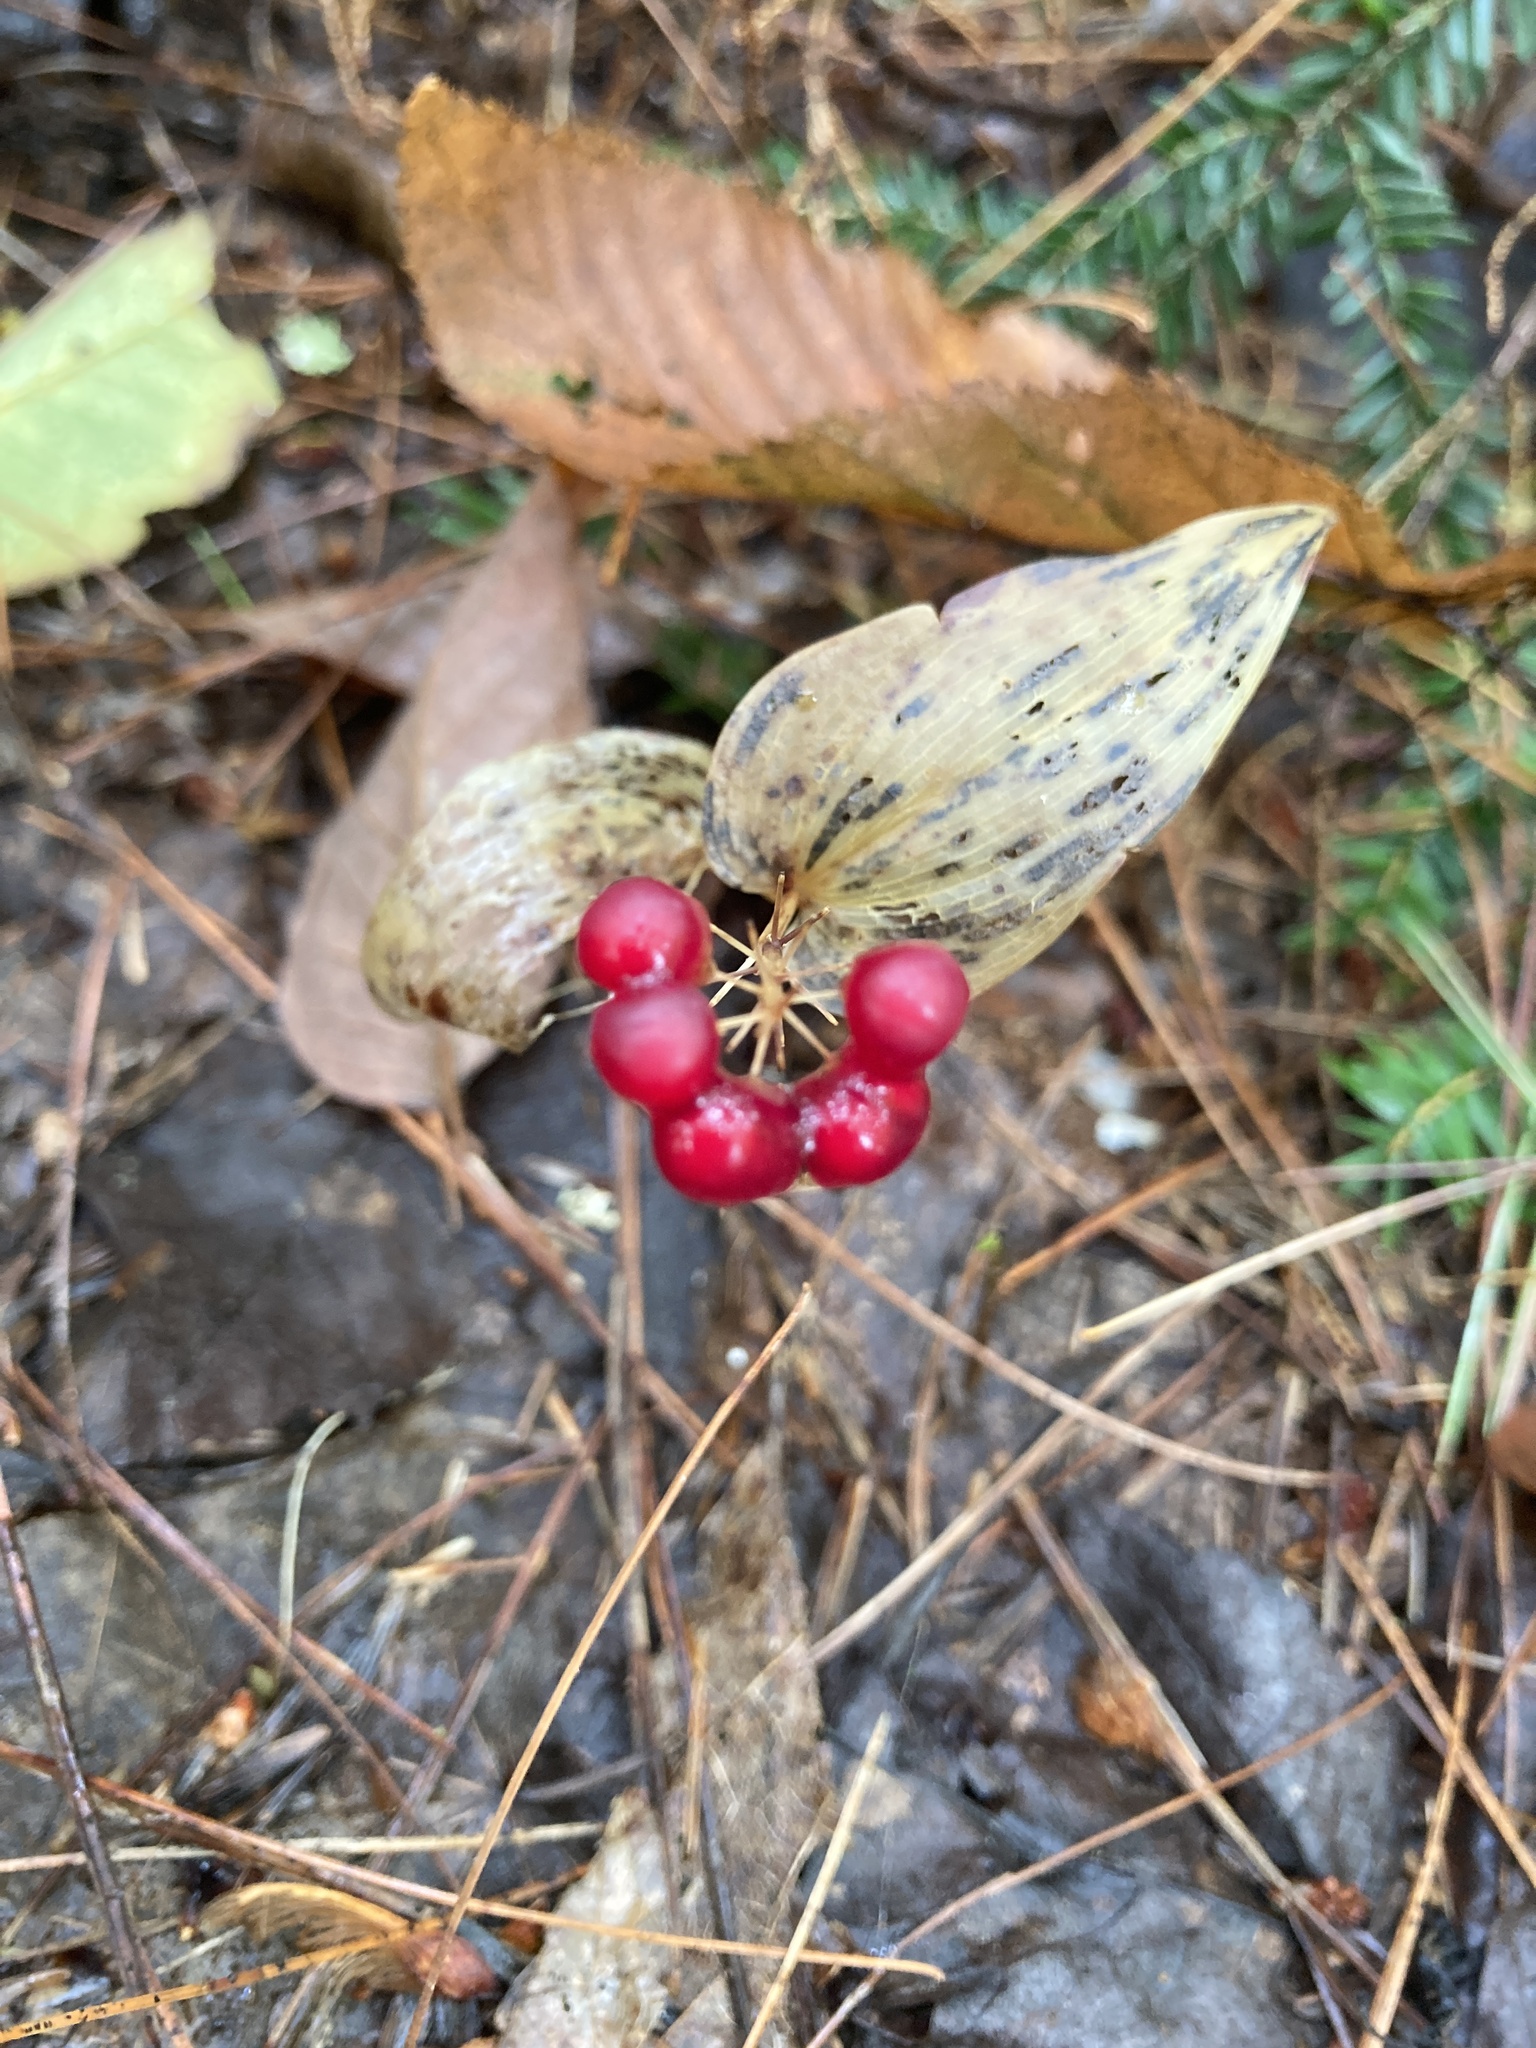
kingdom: Plantae
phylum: Tracheophyta
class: Liliopsida
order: Asparagales
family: Asparagaceae
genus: Maianthemum
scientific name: Maianthemum canadense
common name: False lily-of-the-valley
